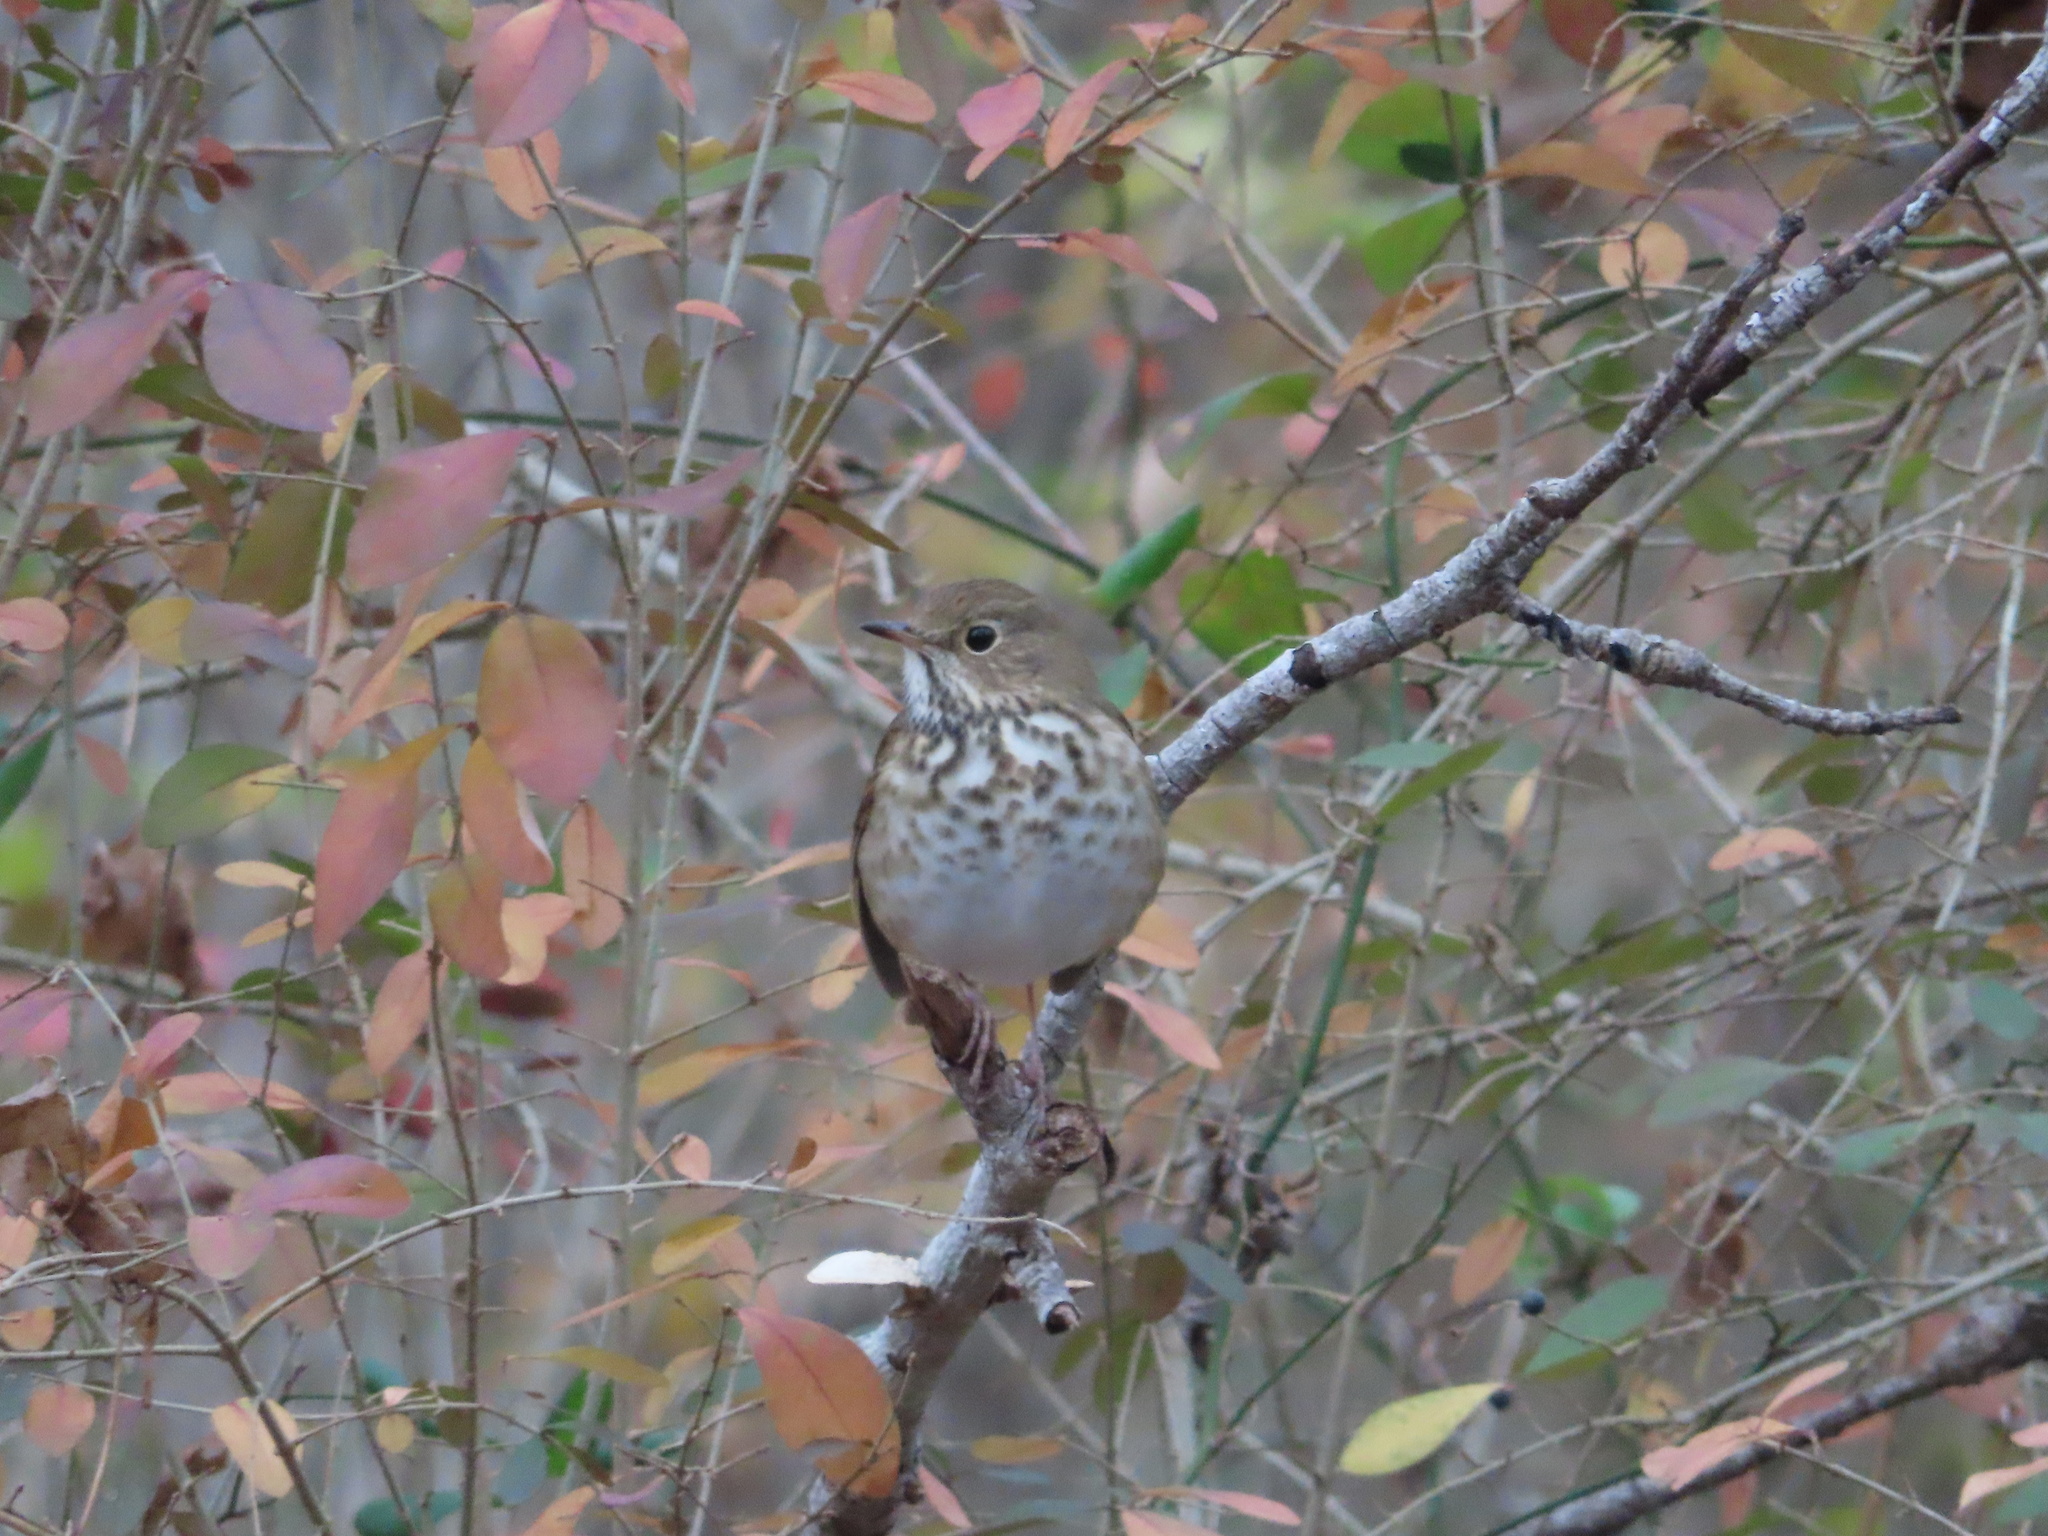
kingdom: Animalia
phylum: Chordata
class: Aves
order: Passeriformes
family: Turdidae
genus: Catharus
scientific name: Catharus guttatus
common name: Hermit thrush
